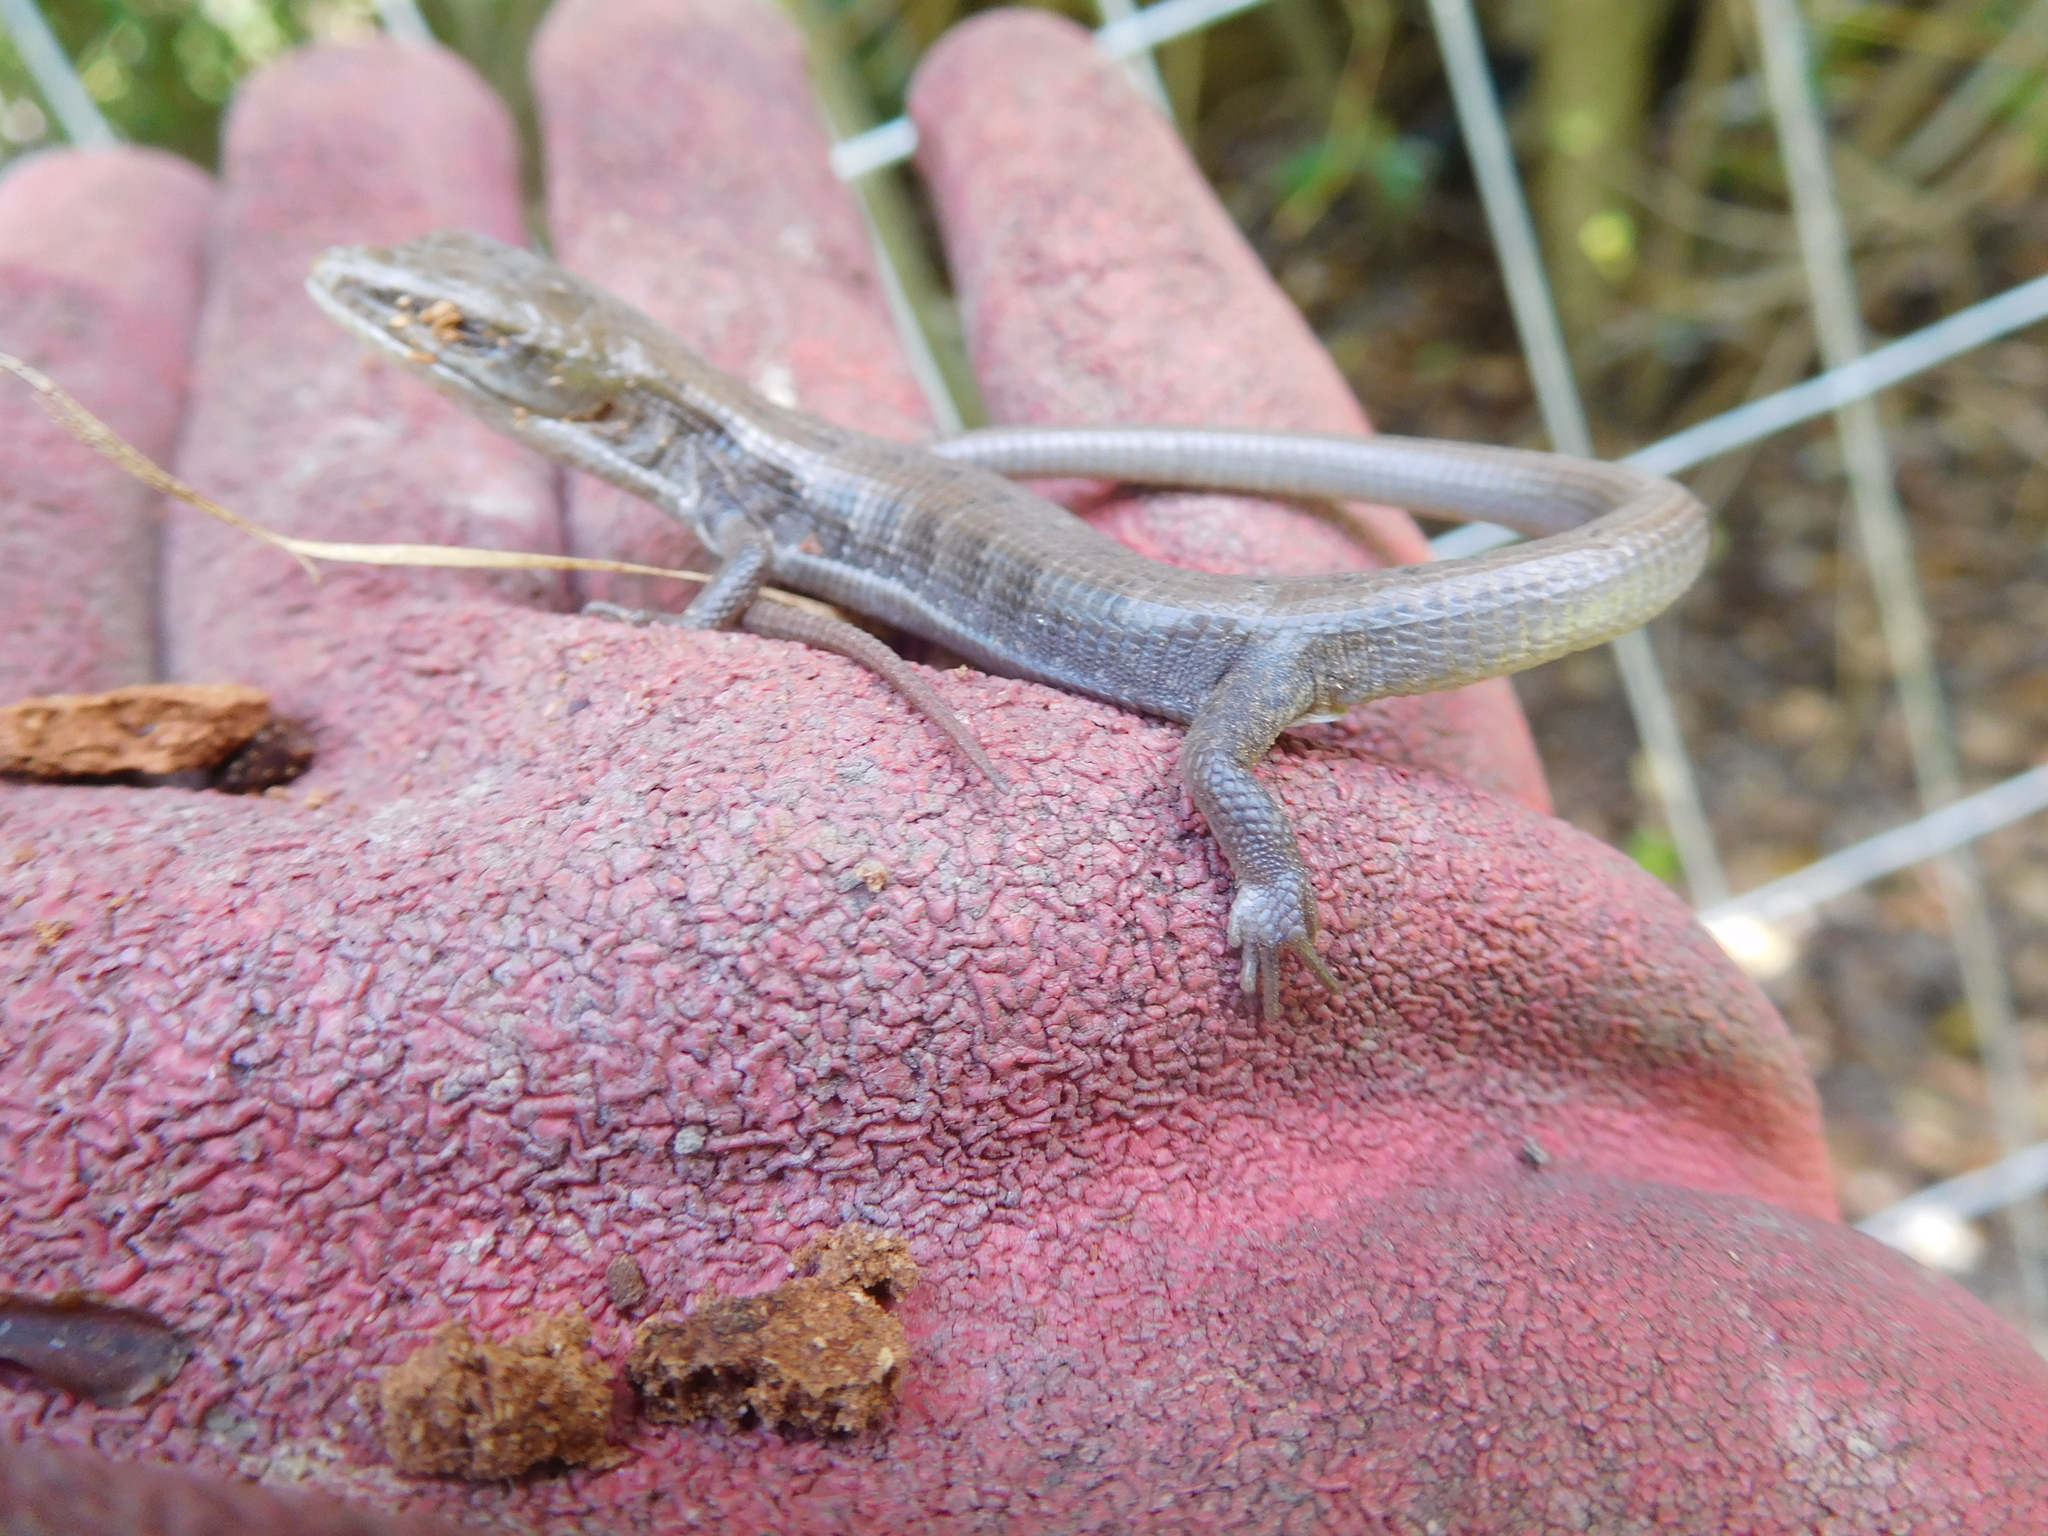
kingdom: Animalia
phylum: Chordata
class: Squamata
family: Anguidae
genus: Elgaria
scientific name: Elgaria
